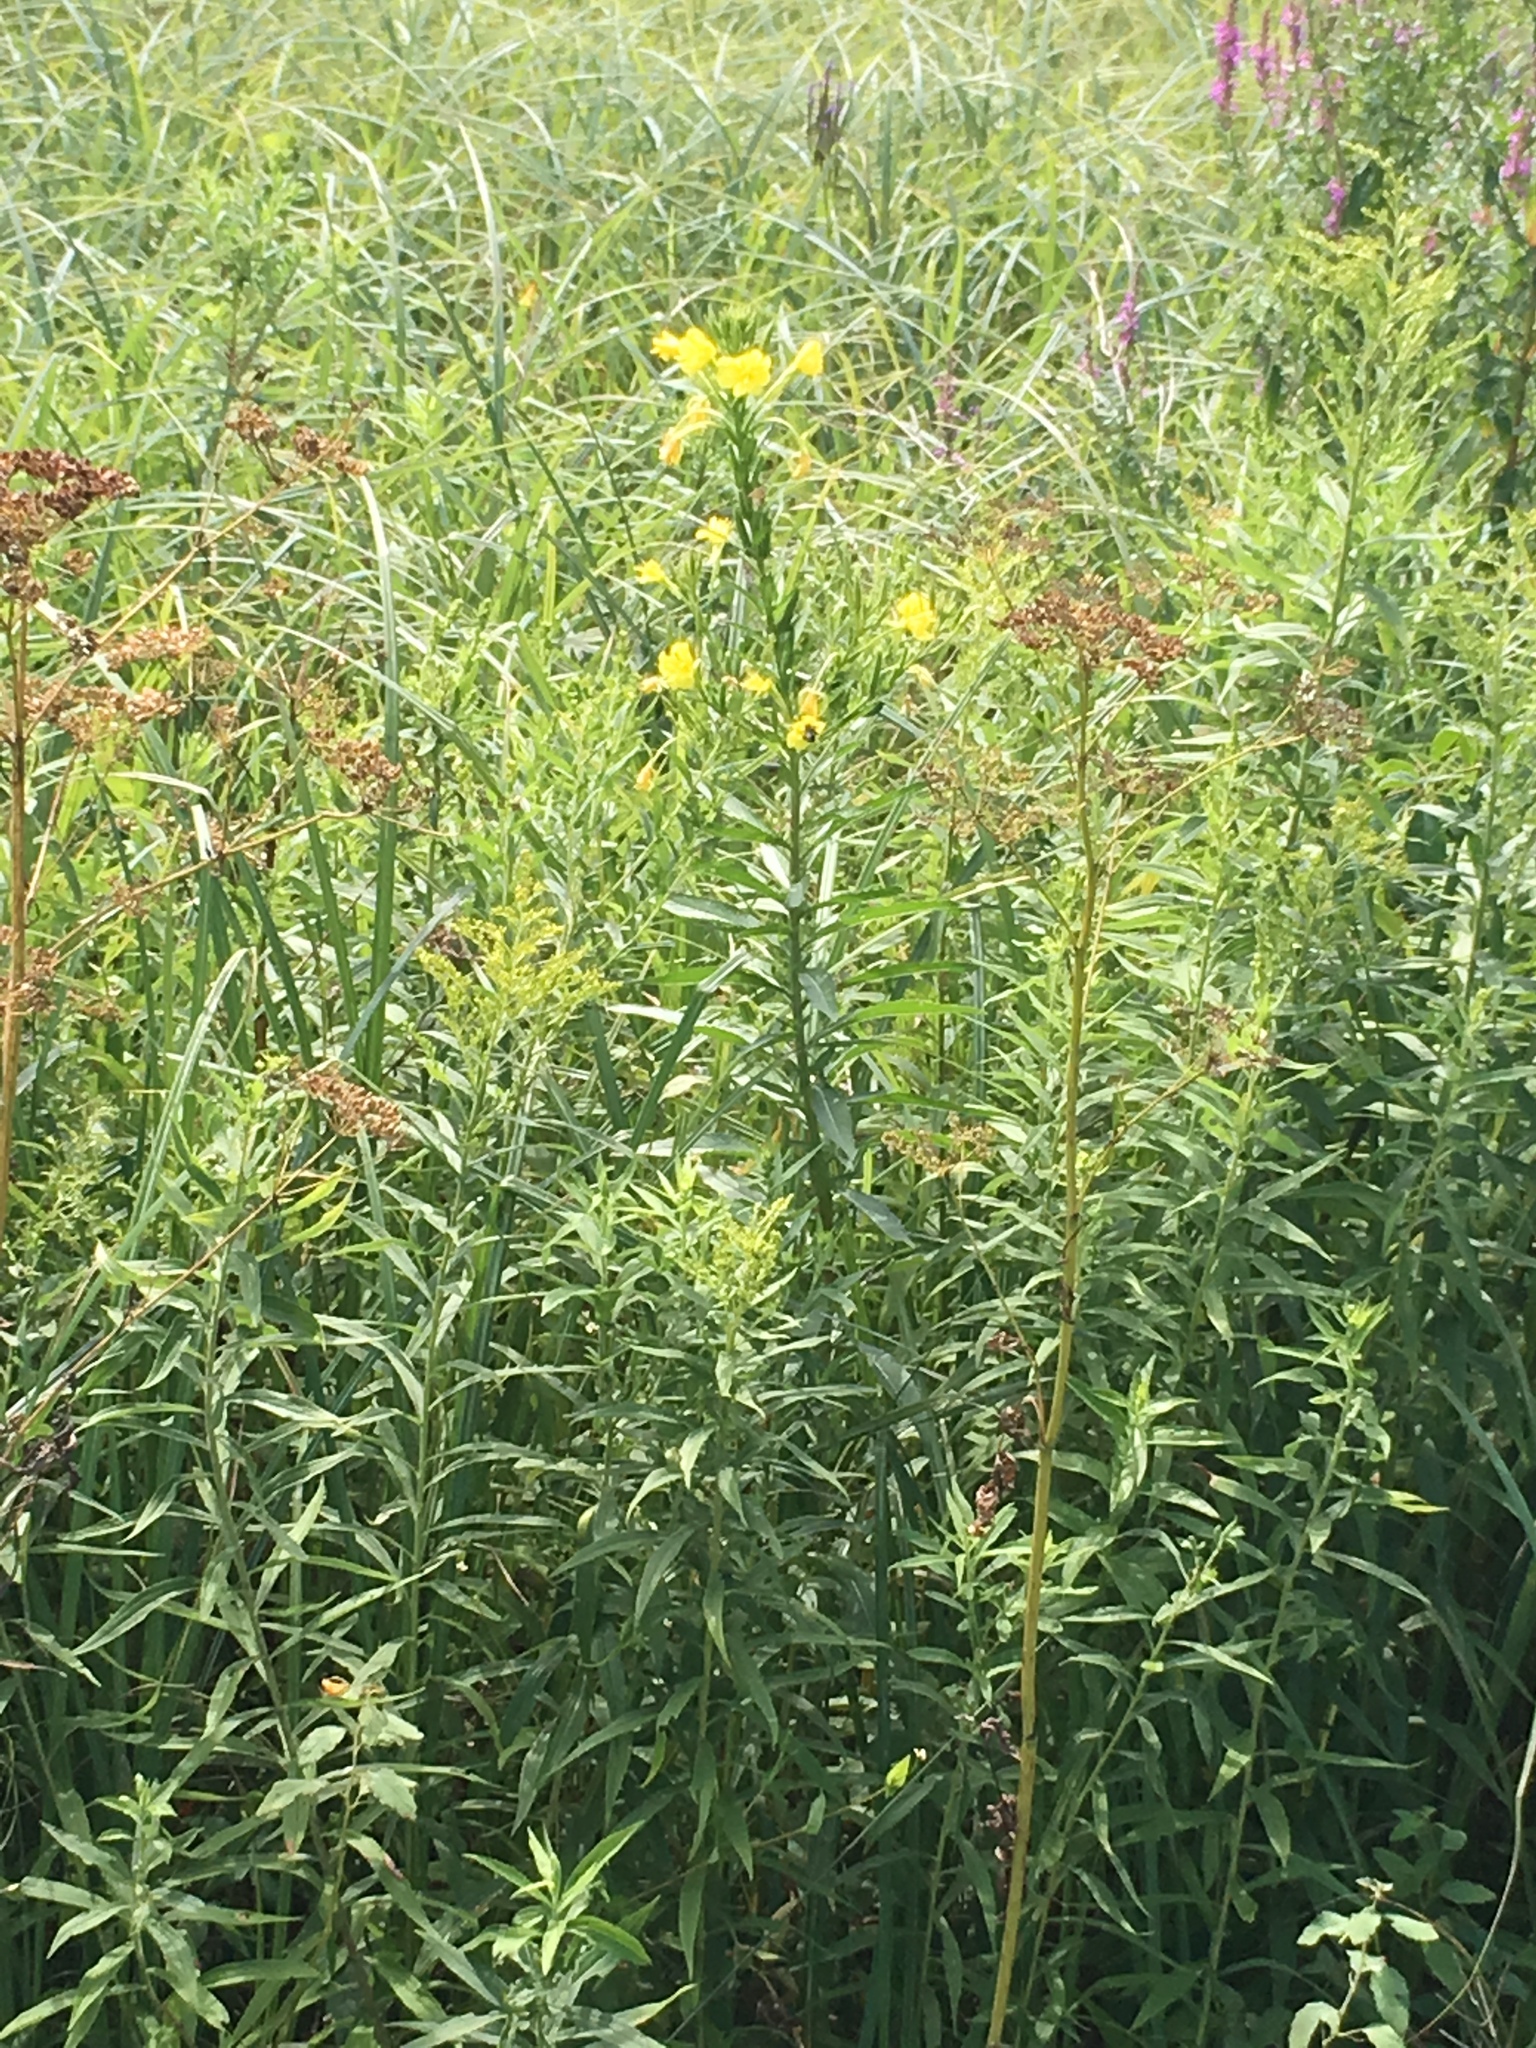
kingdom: Plantae
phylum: Tracheophyta
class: Magnoliopsida
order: Myrtales
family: Onagraceae
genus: Oenothera
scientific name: Oenothera biennis
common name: Common evening-primrose
